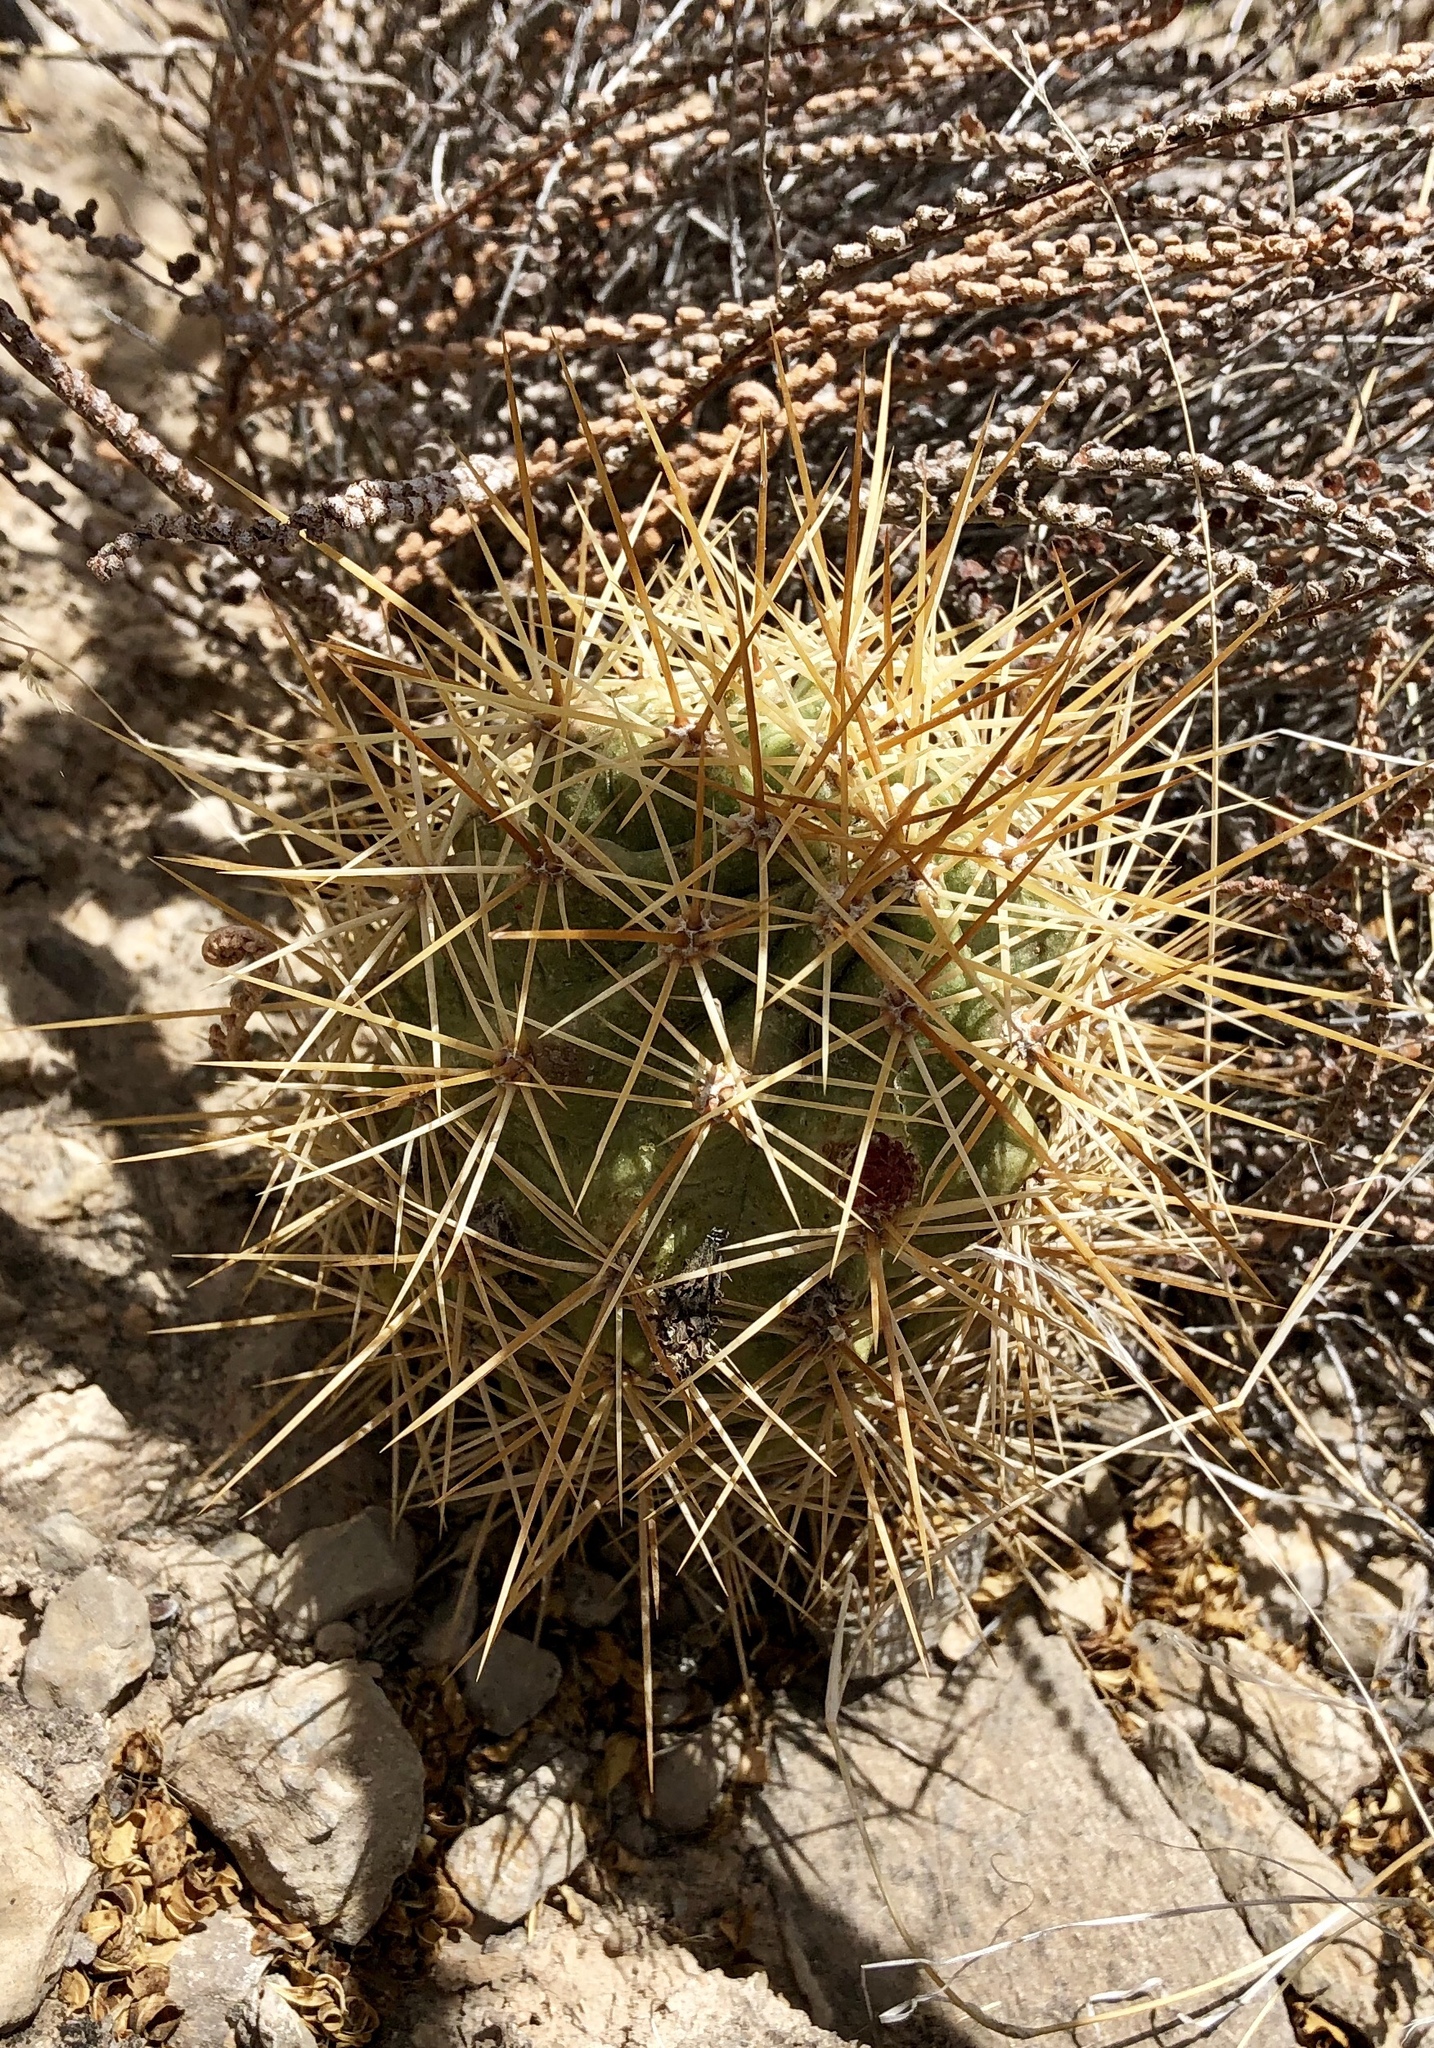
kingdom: Plantae
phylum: Tracheophyta
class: Magnoliopsida
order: Caryophyllales
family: Cactaceae
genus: Echinocereus
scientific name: Echinocereus coccineus
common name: Scarlet hedgehog cactus
